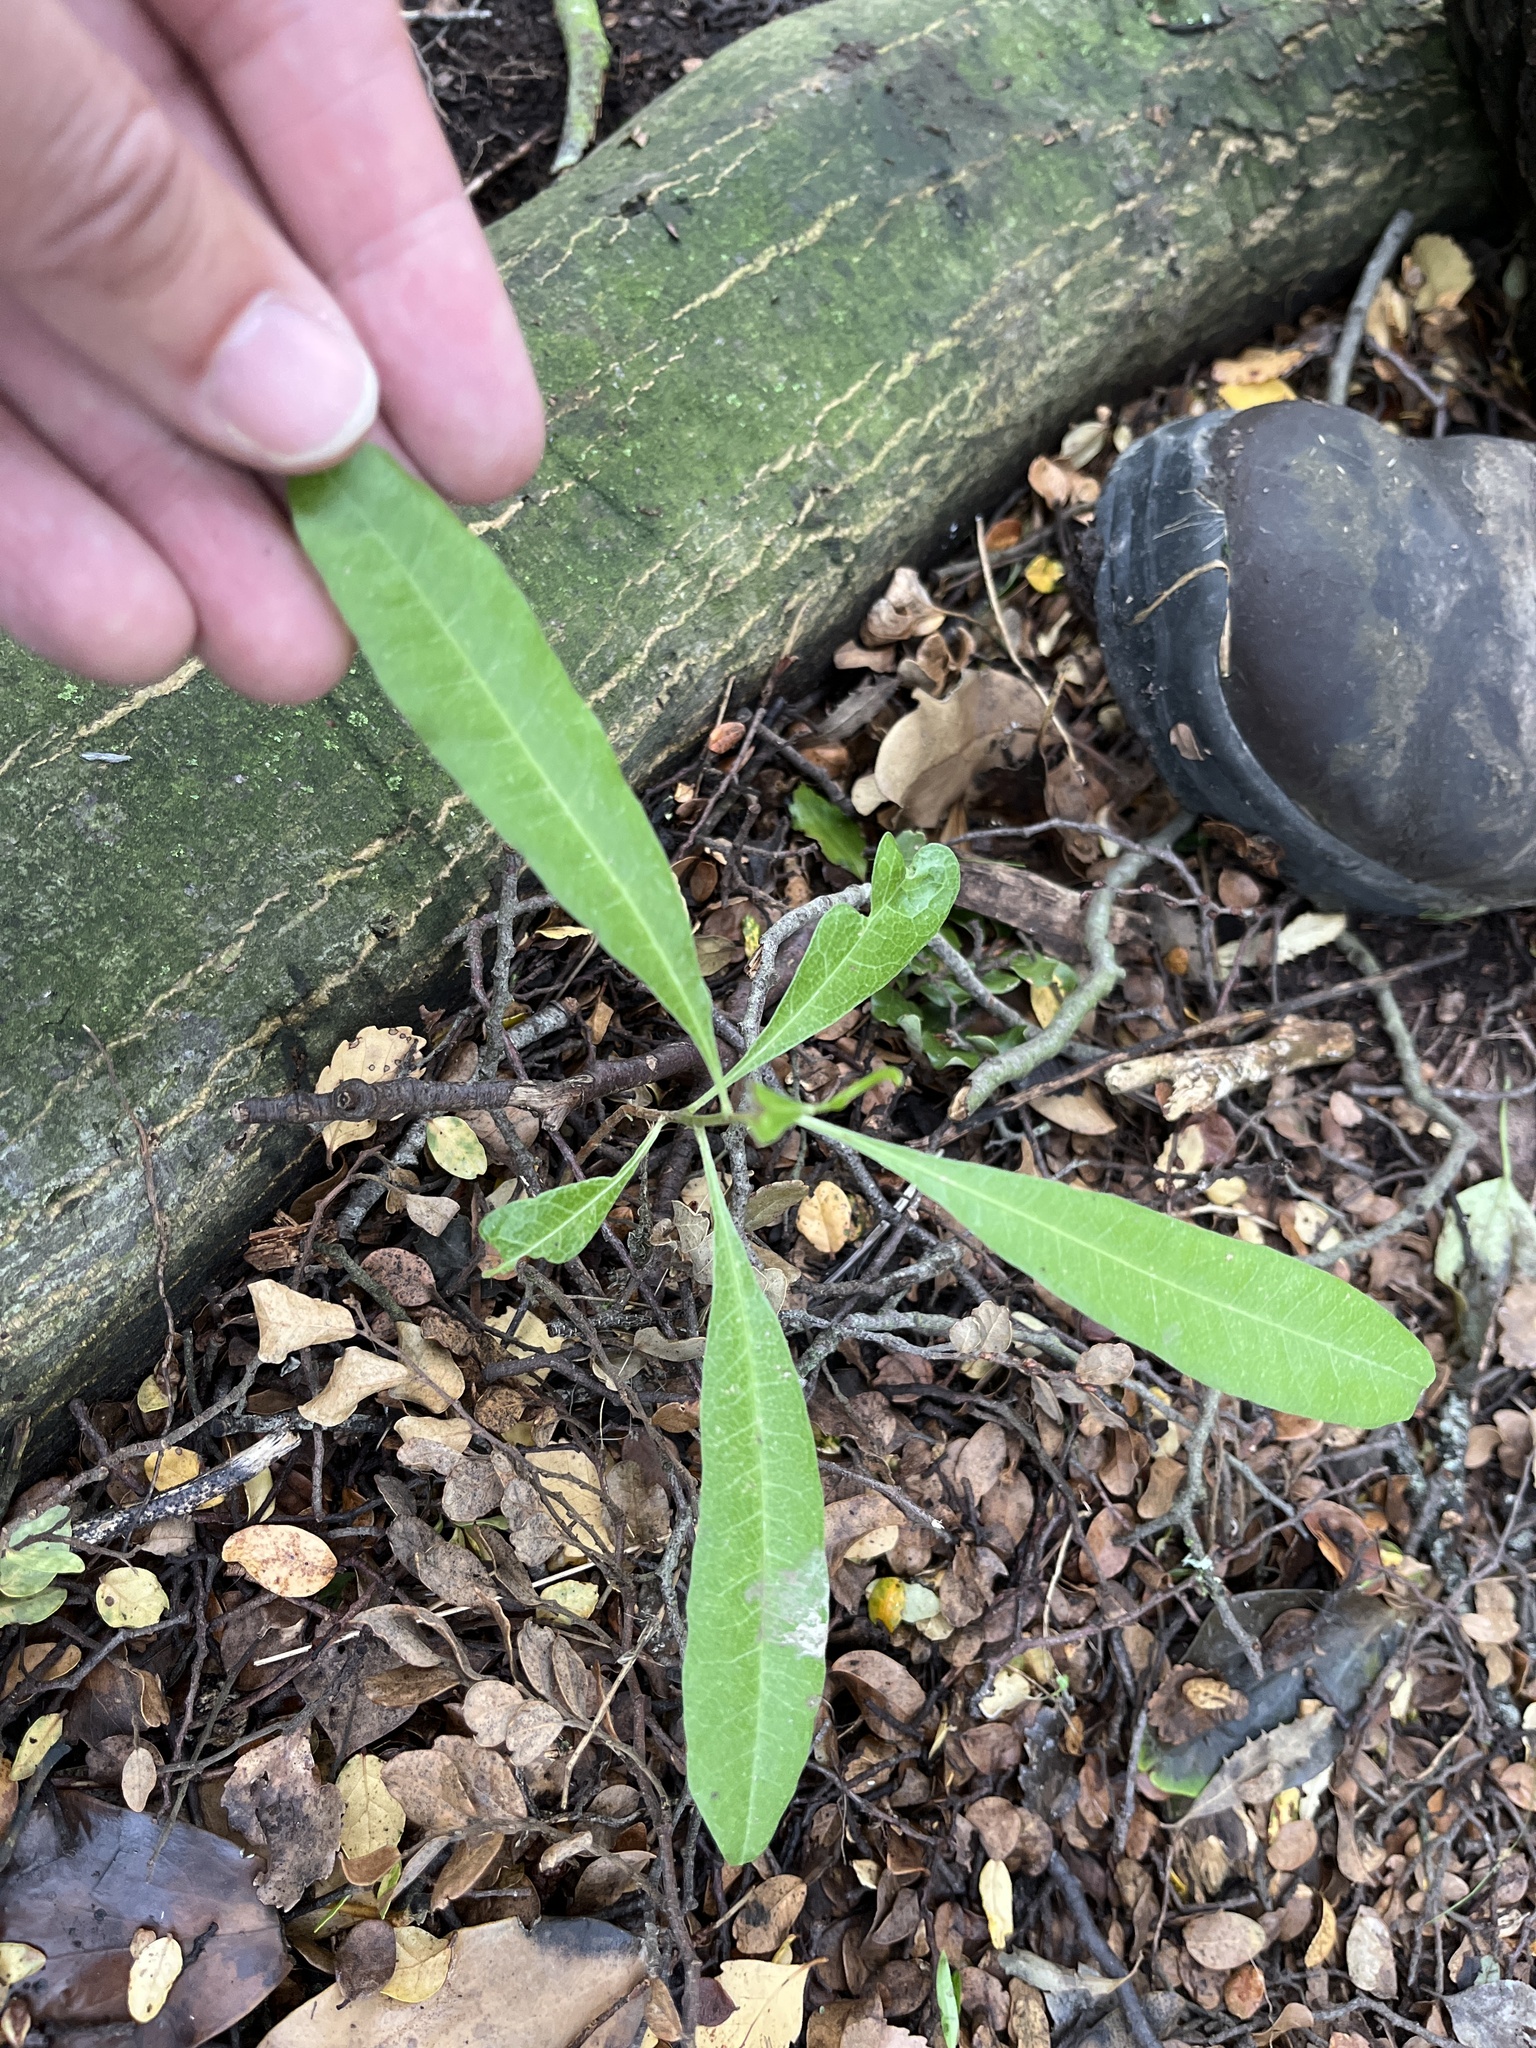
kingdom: Plantae
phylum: Tracheophyta
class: Magnoliopsida
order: Sapindales
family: Sapindaceae
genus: Dodonaea
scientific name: Dodonaea viscosa
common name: Hopbush
